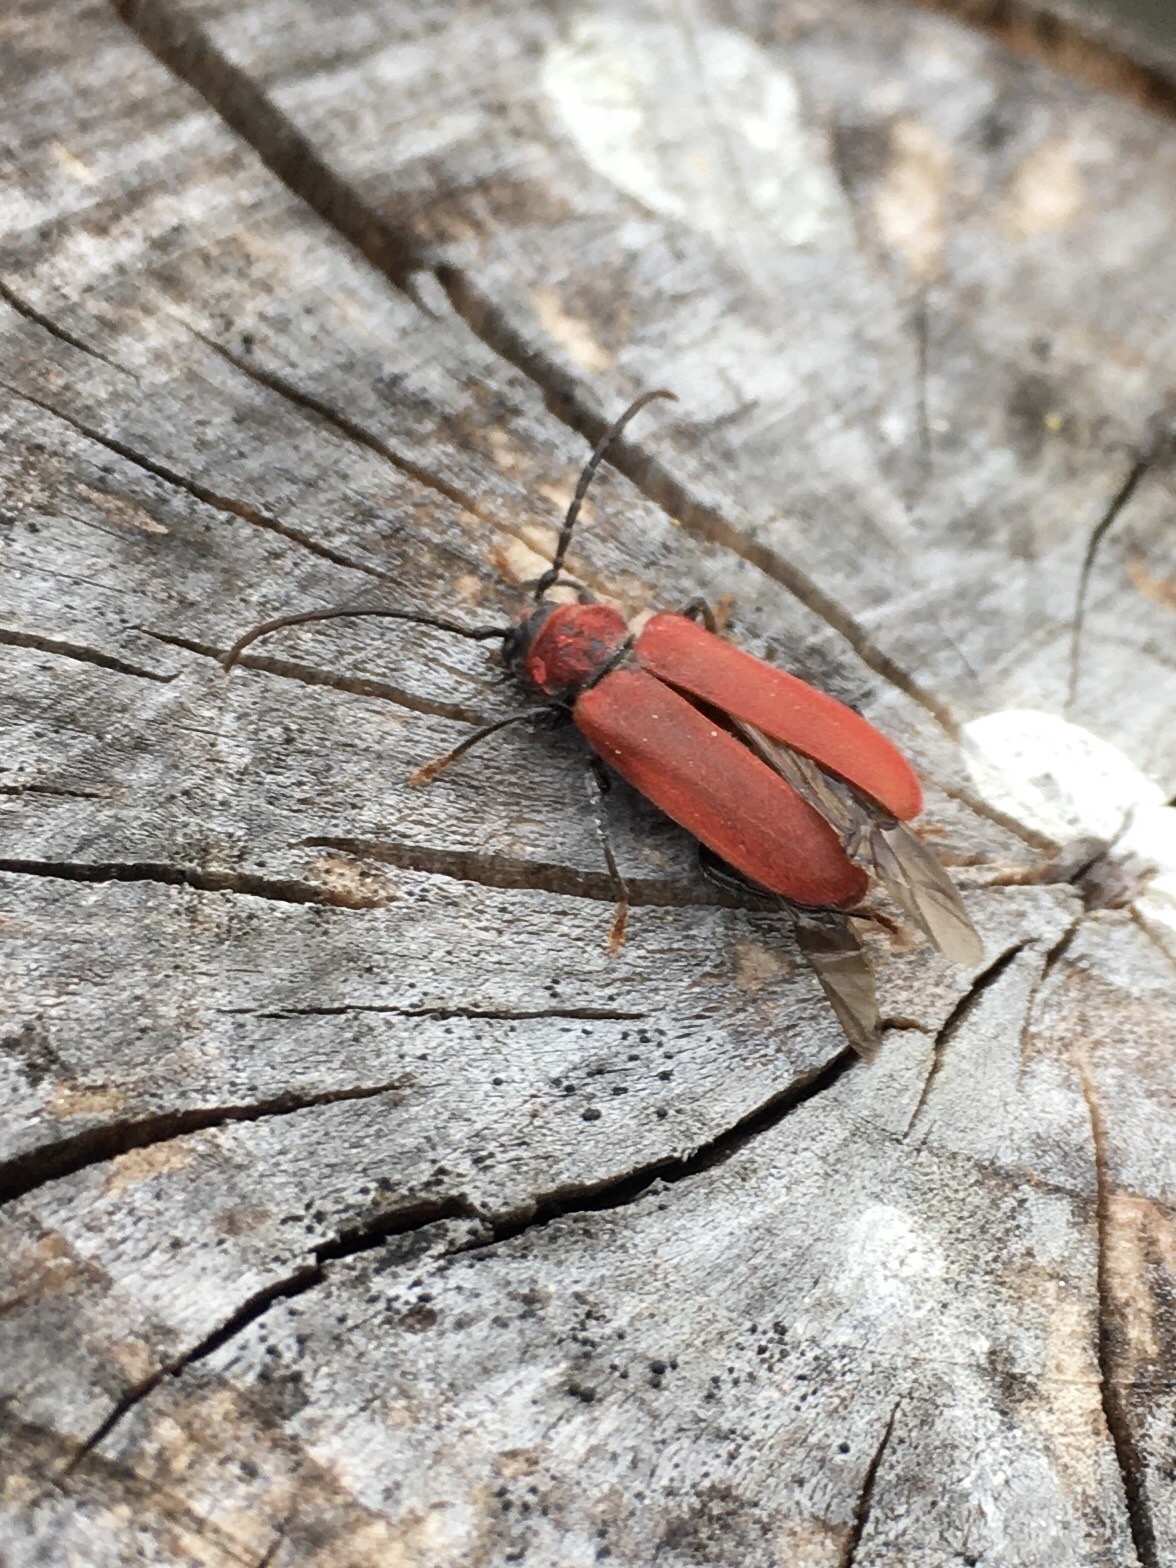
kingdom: Animalia
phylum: Arthropoda
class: Insecta
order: Coleoptera
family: Cerambycidae
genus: Pyrrhidium
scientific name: Pyrrhidium sanguineum
